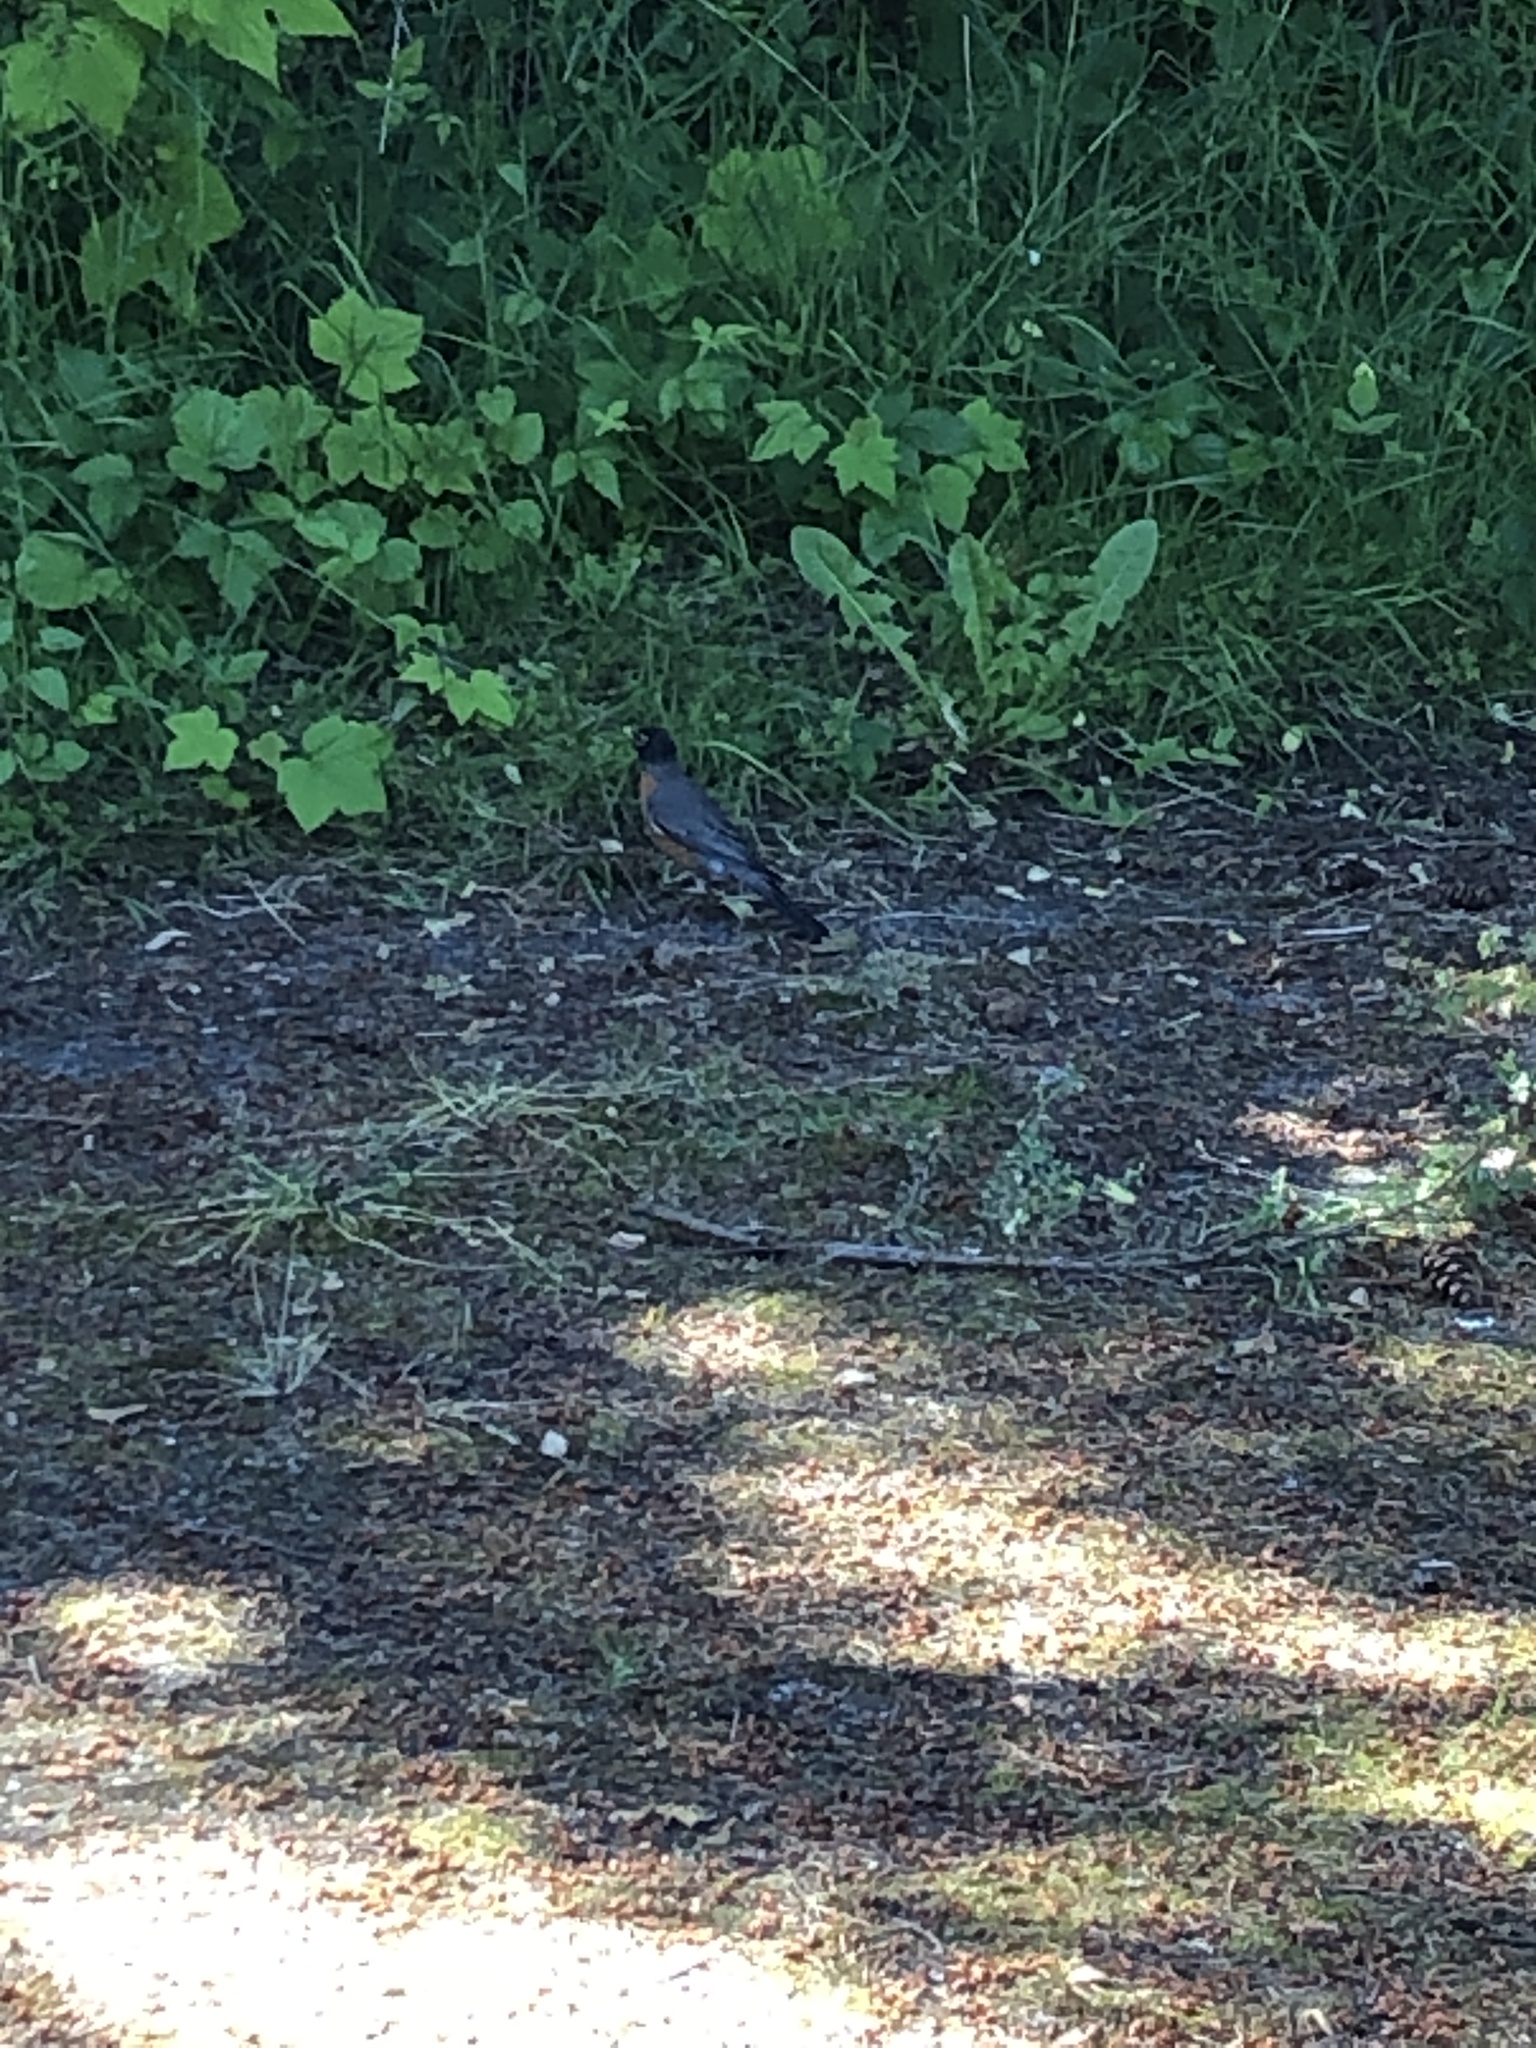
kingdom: Animalia
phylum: Chordata
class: Aves
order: Passeriformes
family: Turdidae
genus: Turdus
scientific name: Turdus migratorius
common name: American robin
